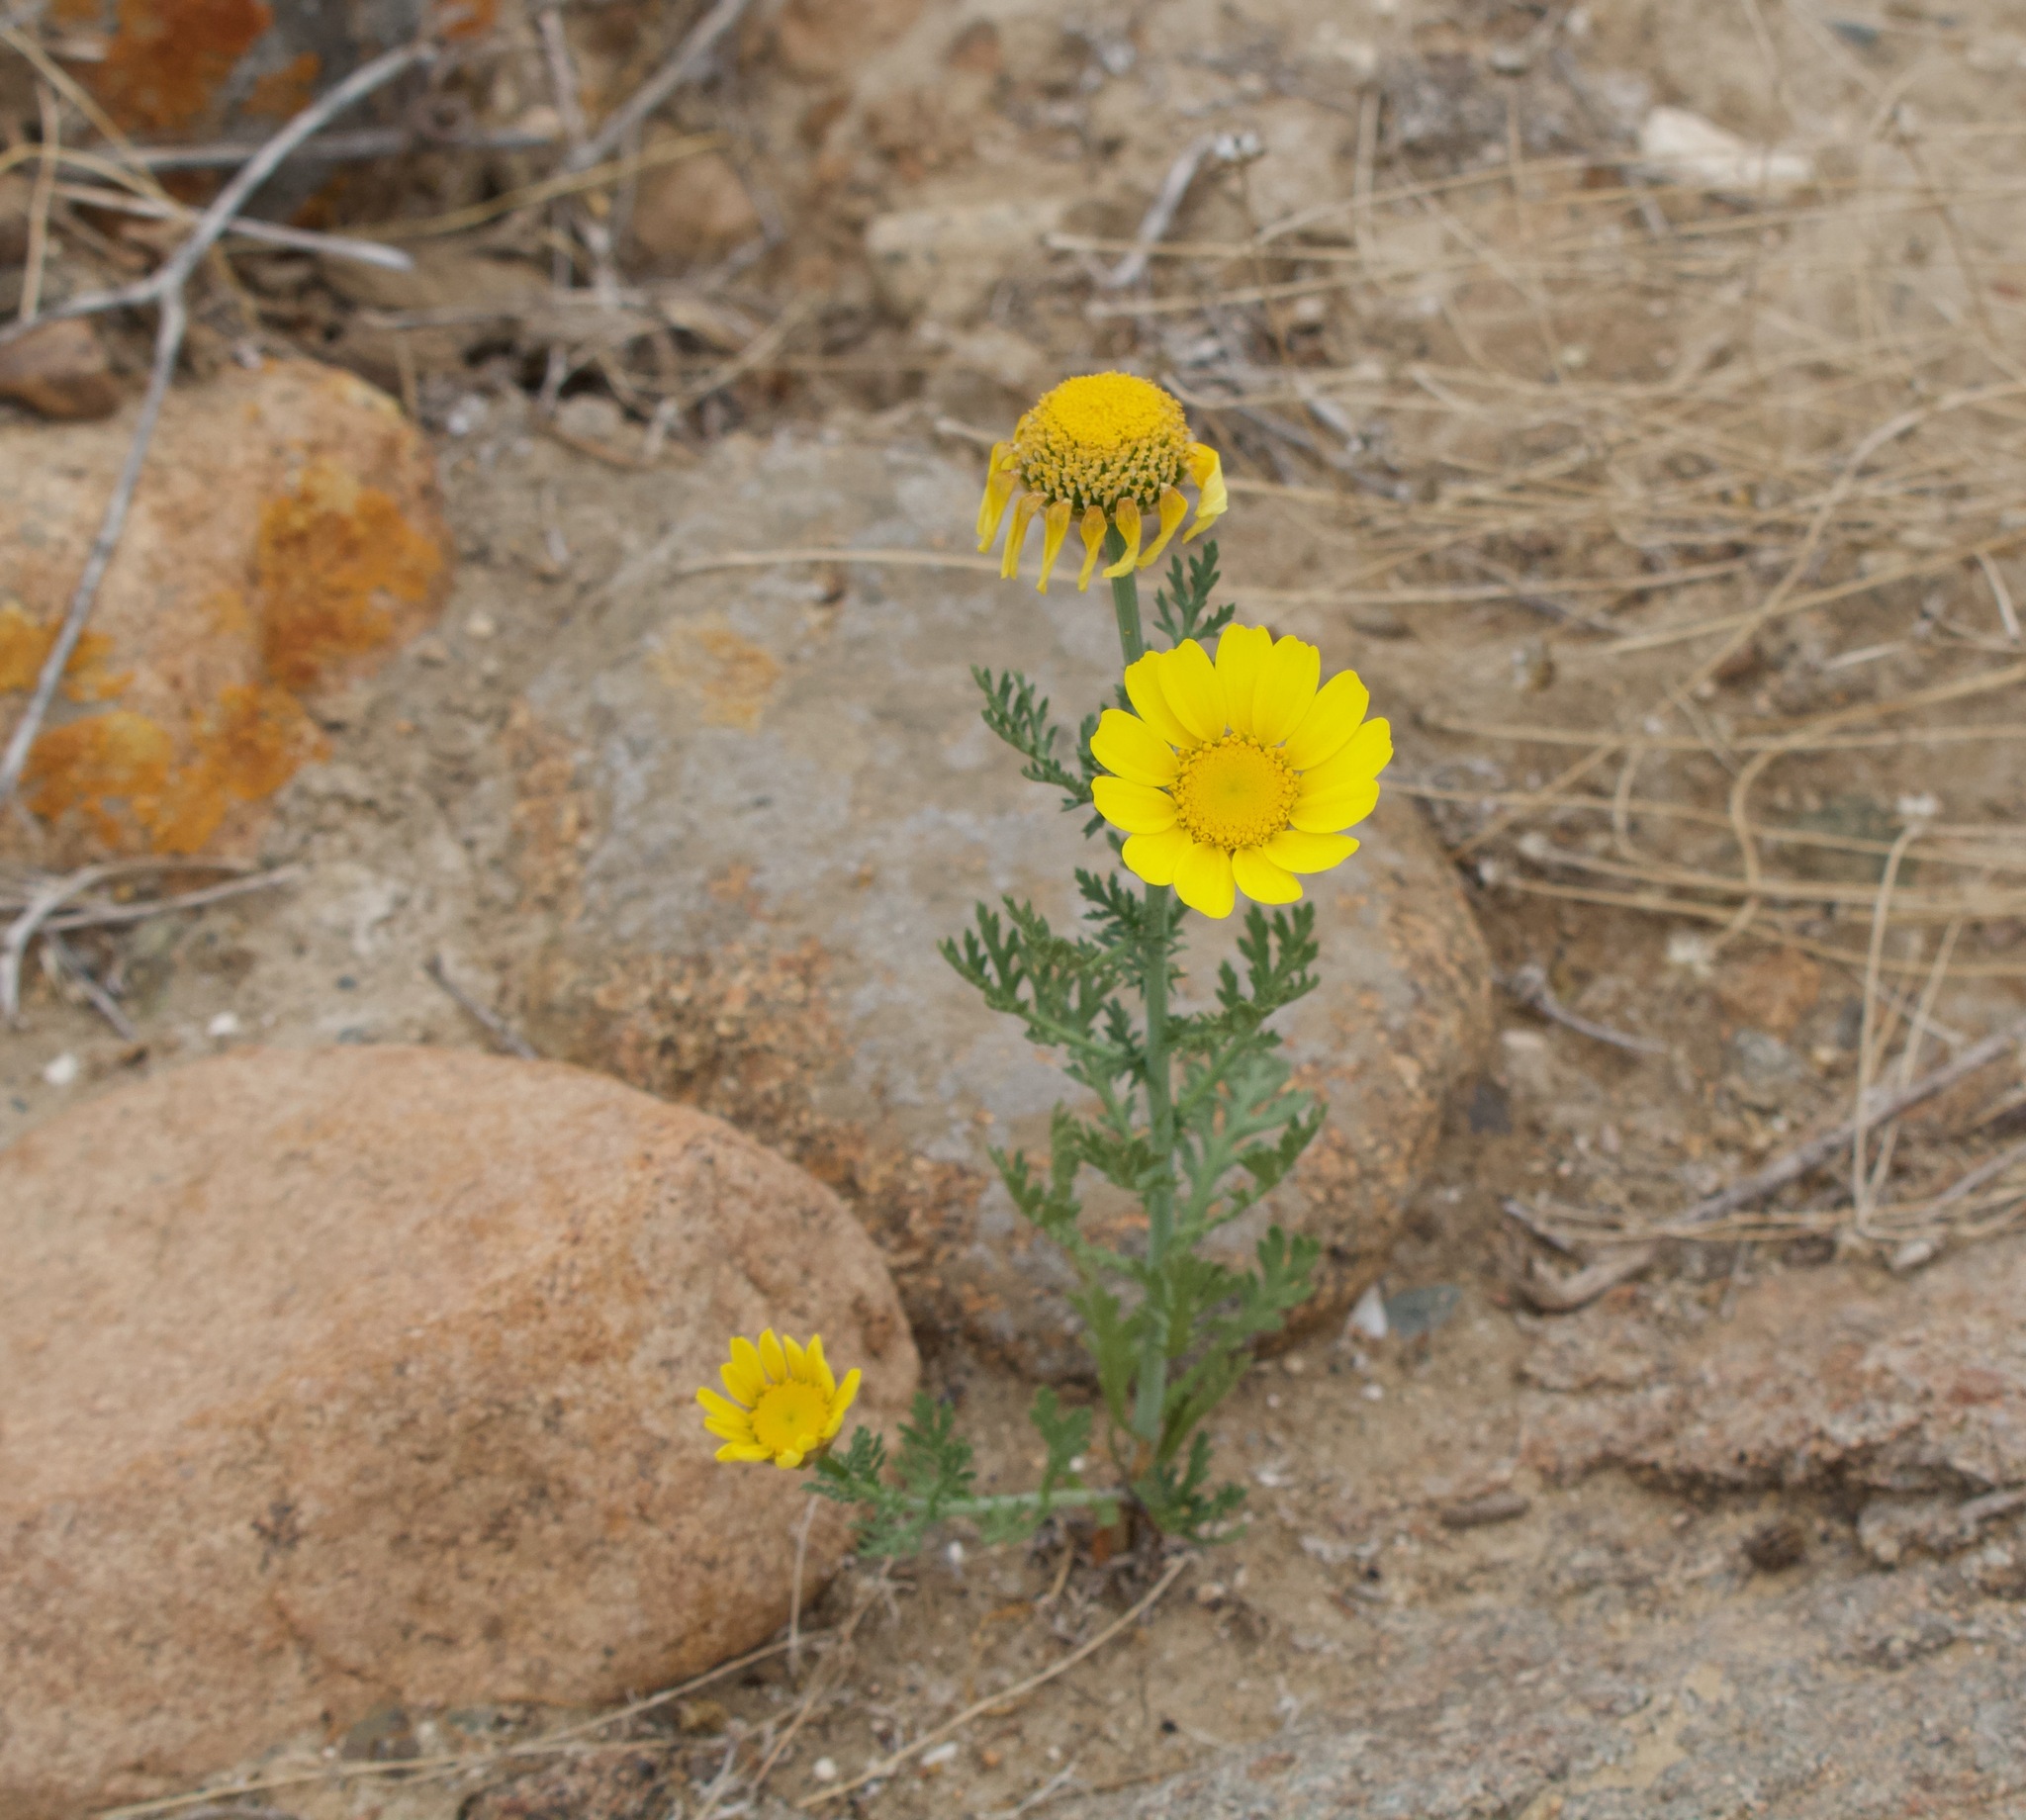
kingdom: Plantae
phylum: Tracheophyta
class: Magnoliopsida
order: Asterales
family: Asteraceae
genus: Glebionis
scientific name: Glebionis coronaria
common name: Crowndaisy
